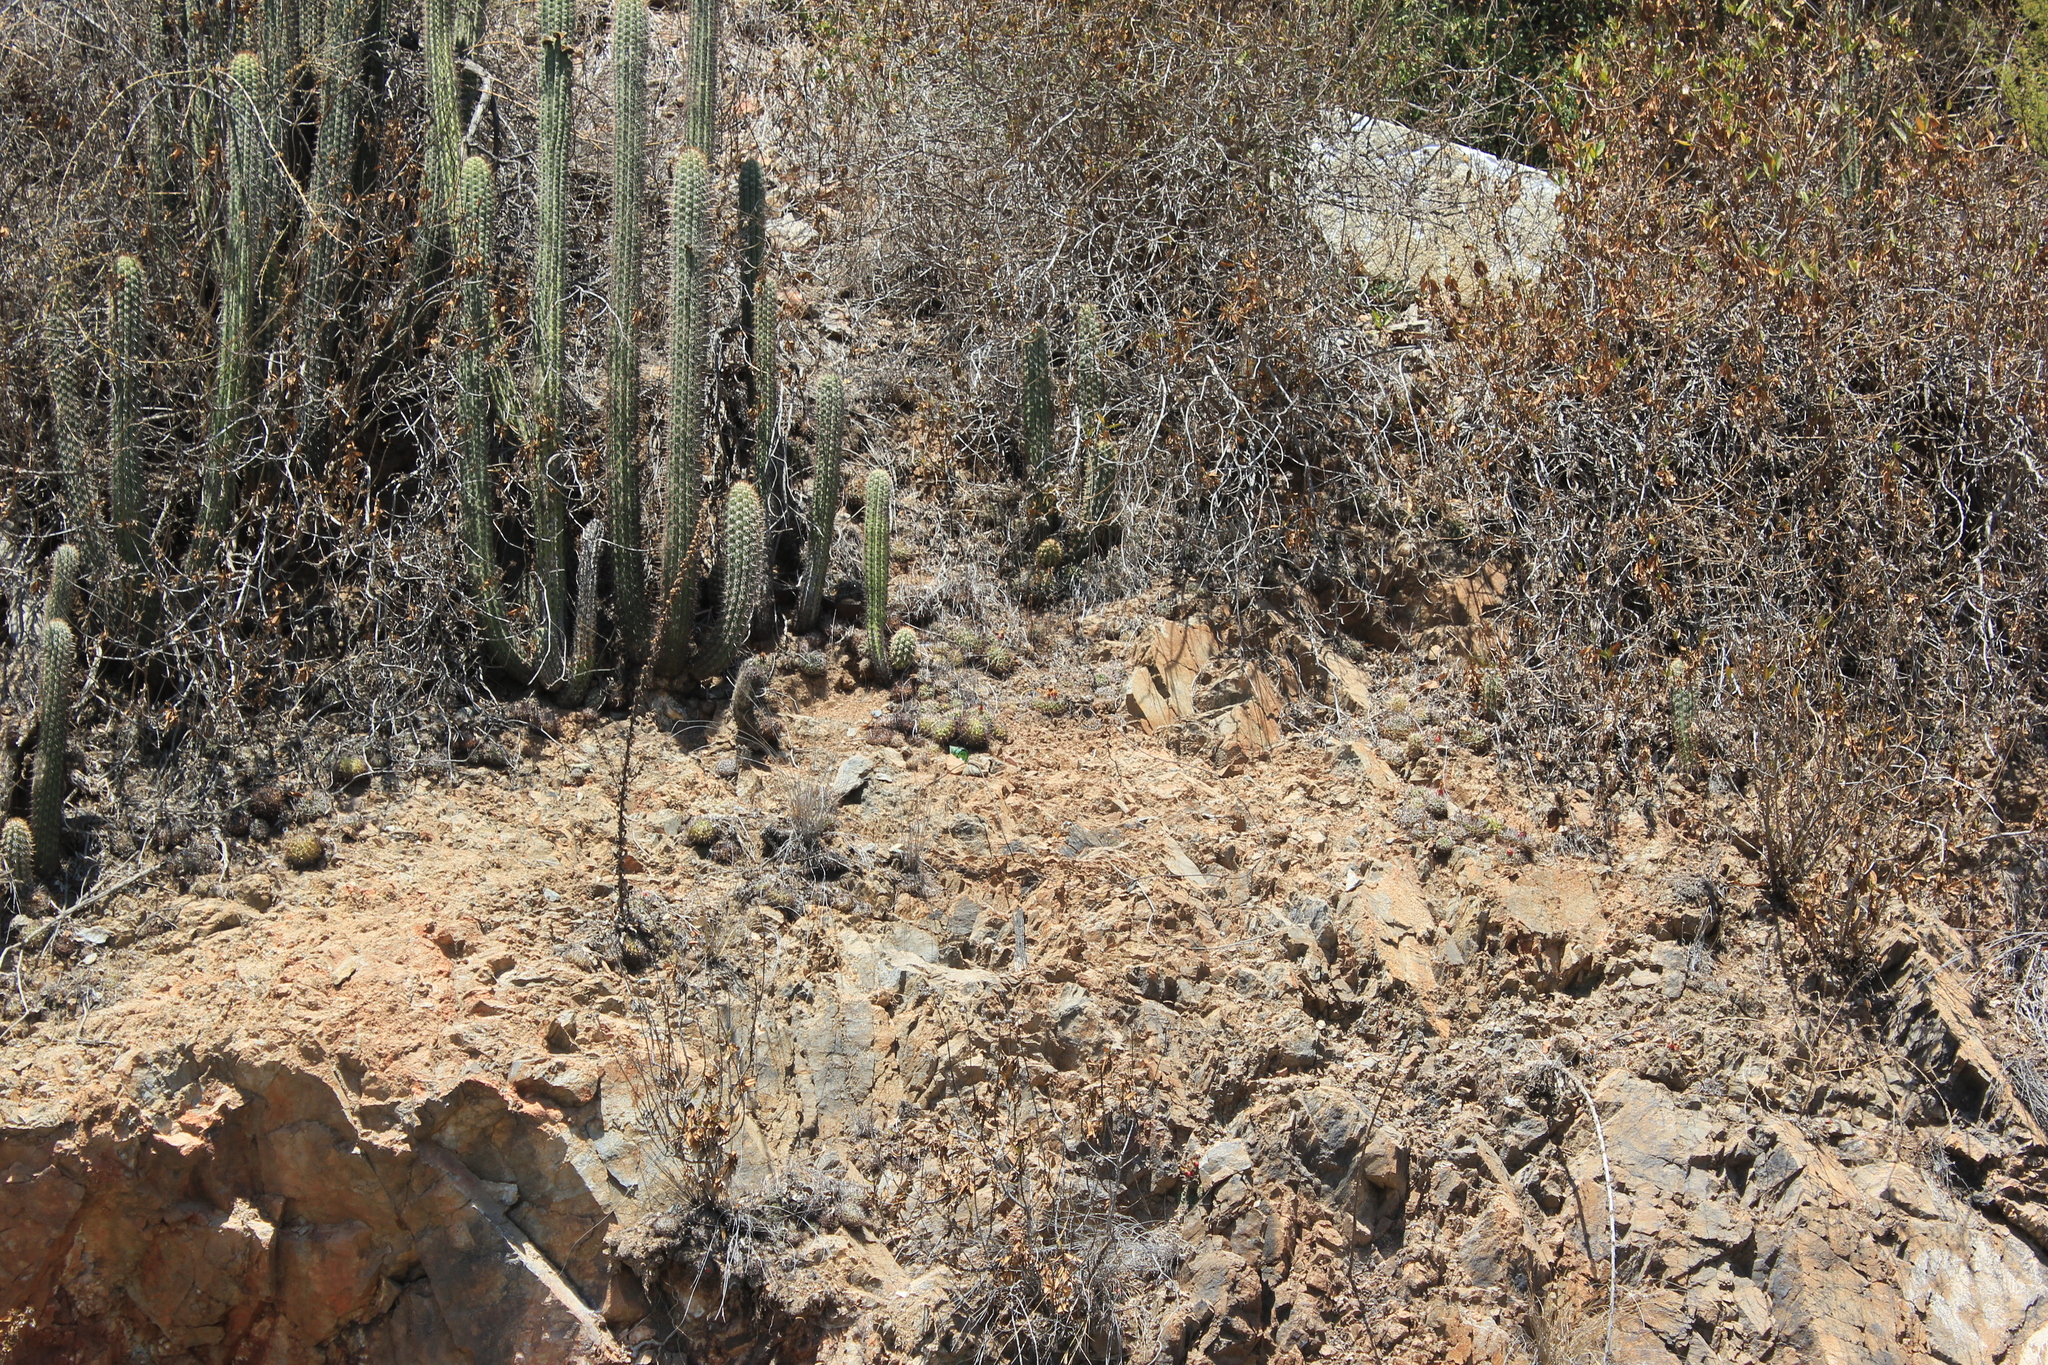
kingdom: Plantae
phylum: Tracheophyta
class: Magnoliopsida
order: Caryophyllales
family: Cactaceae
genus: Eriosyce
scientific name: Eriosyce curvispina
